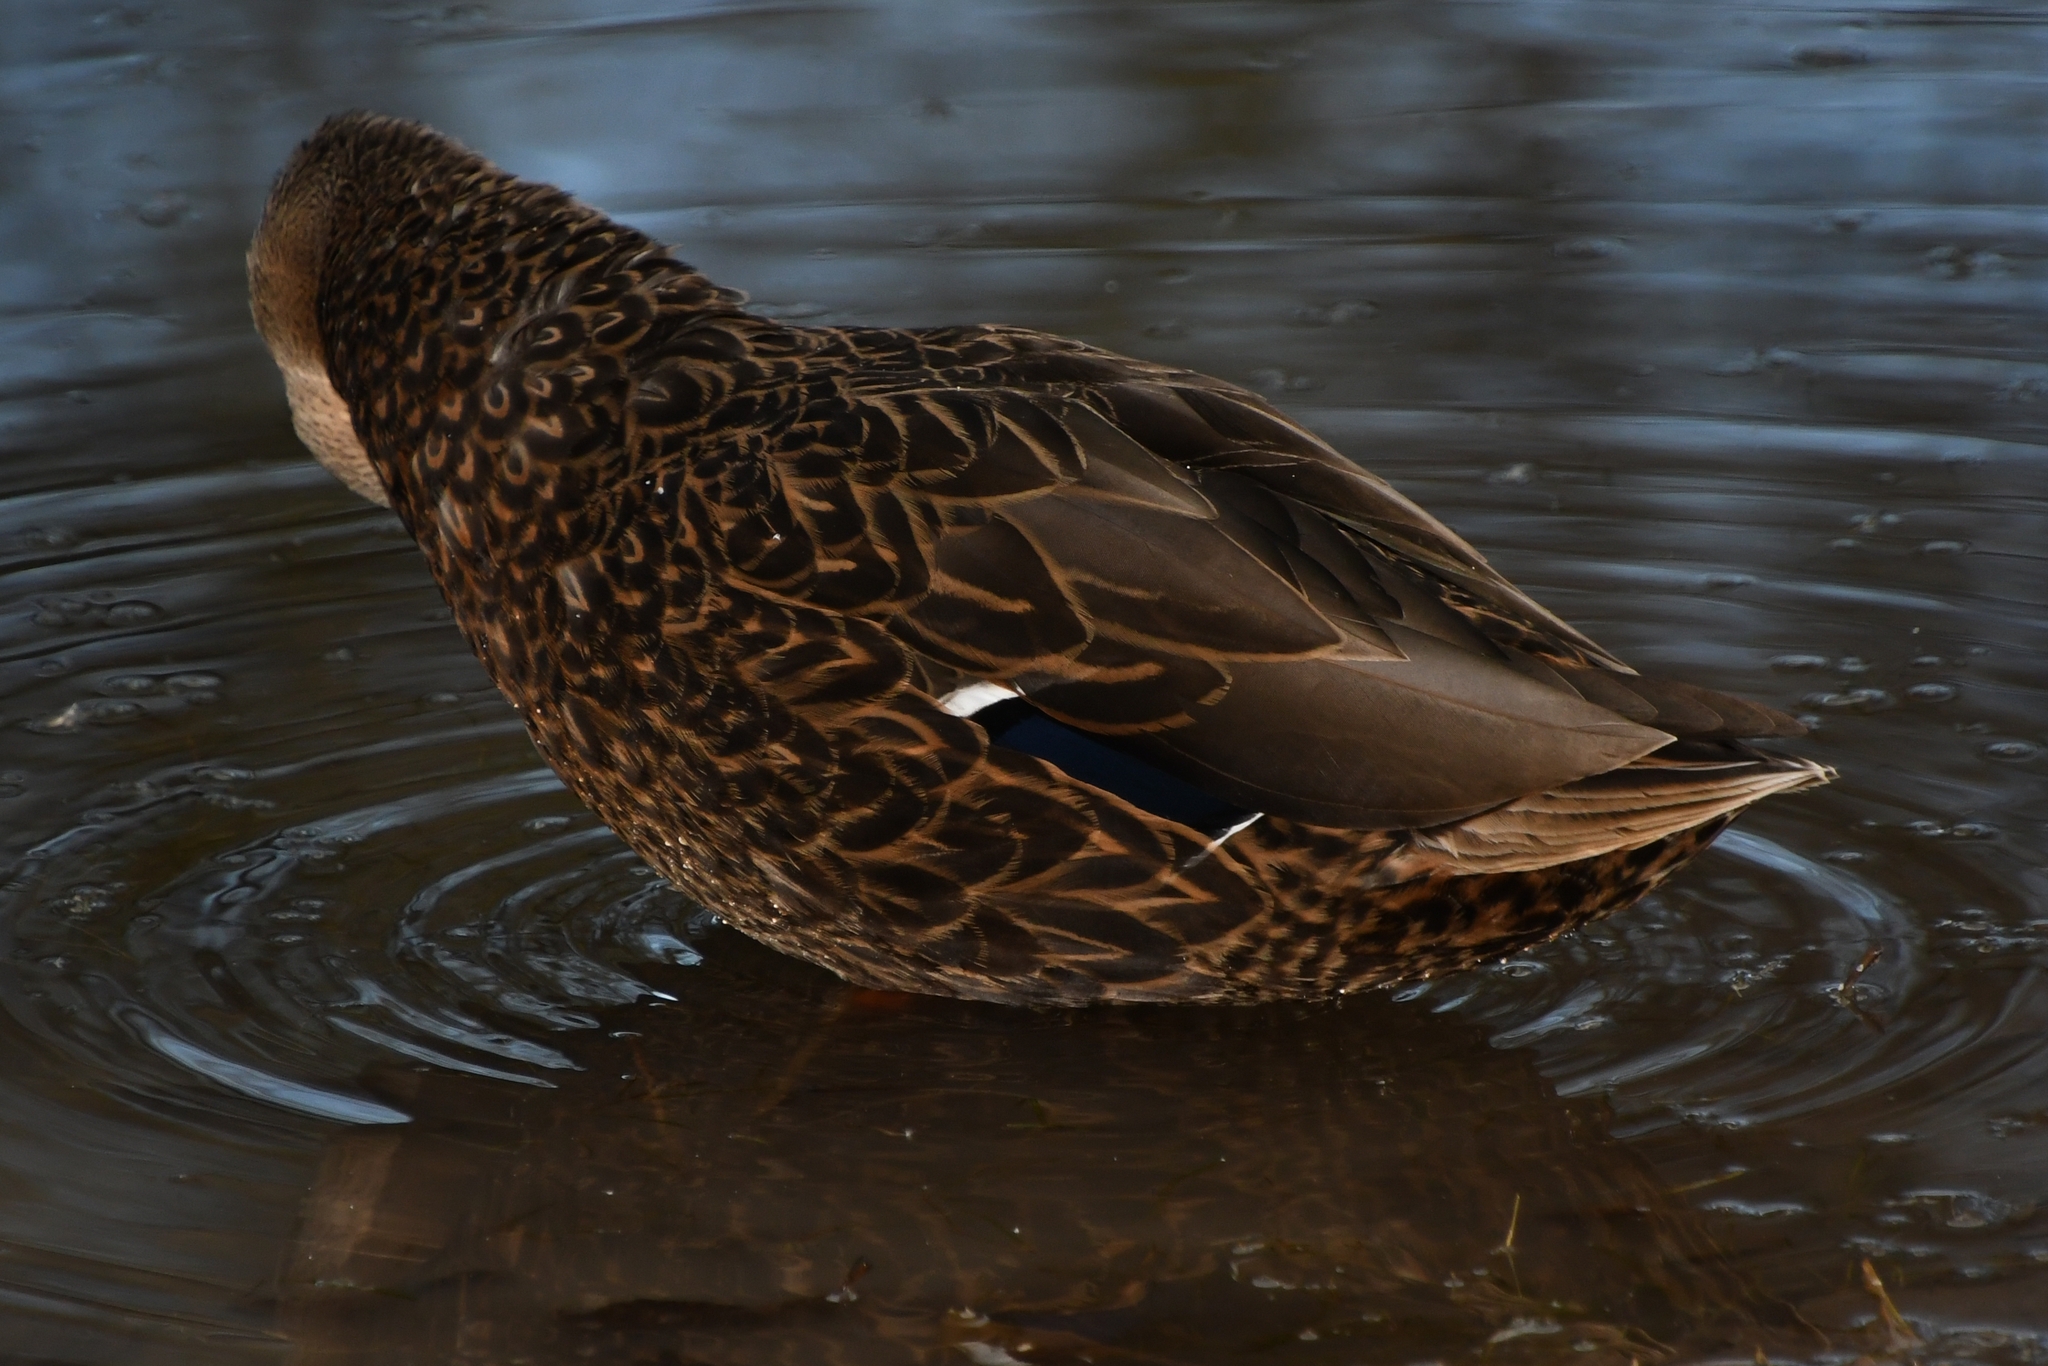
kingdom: Animalia
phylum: Chordata
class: Aves
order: Anseriformes
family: Anatidae
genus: Anas
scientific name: Anas diazi
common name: Mexican duck
